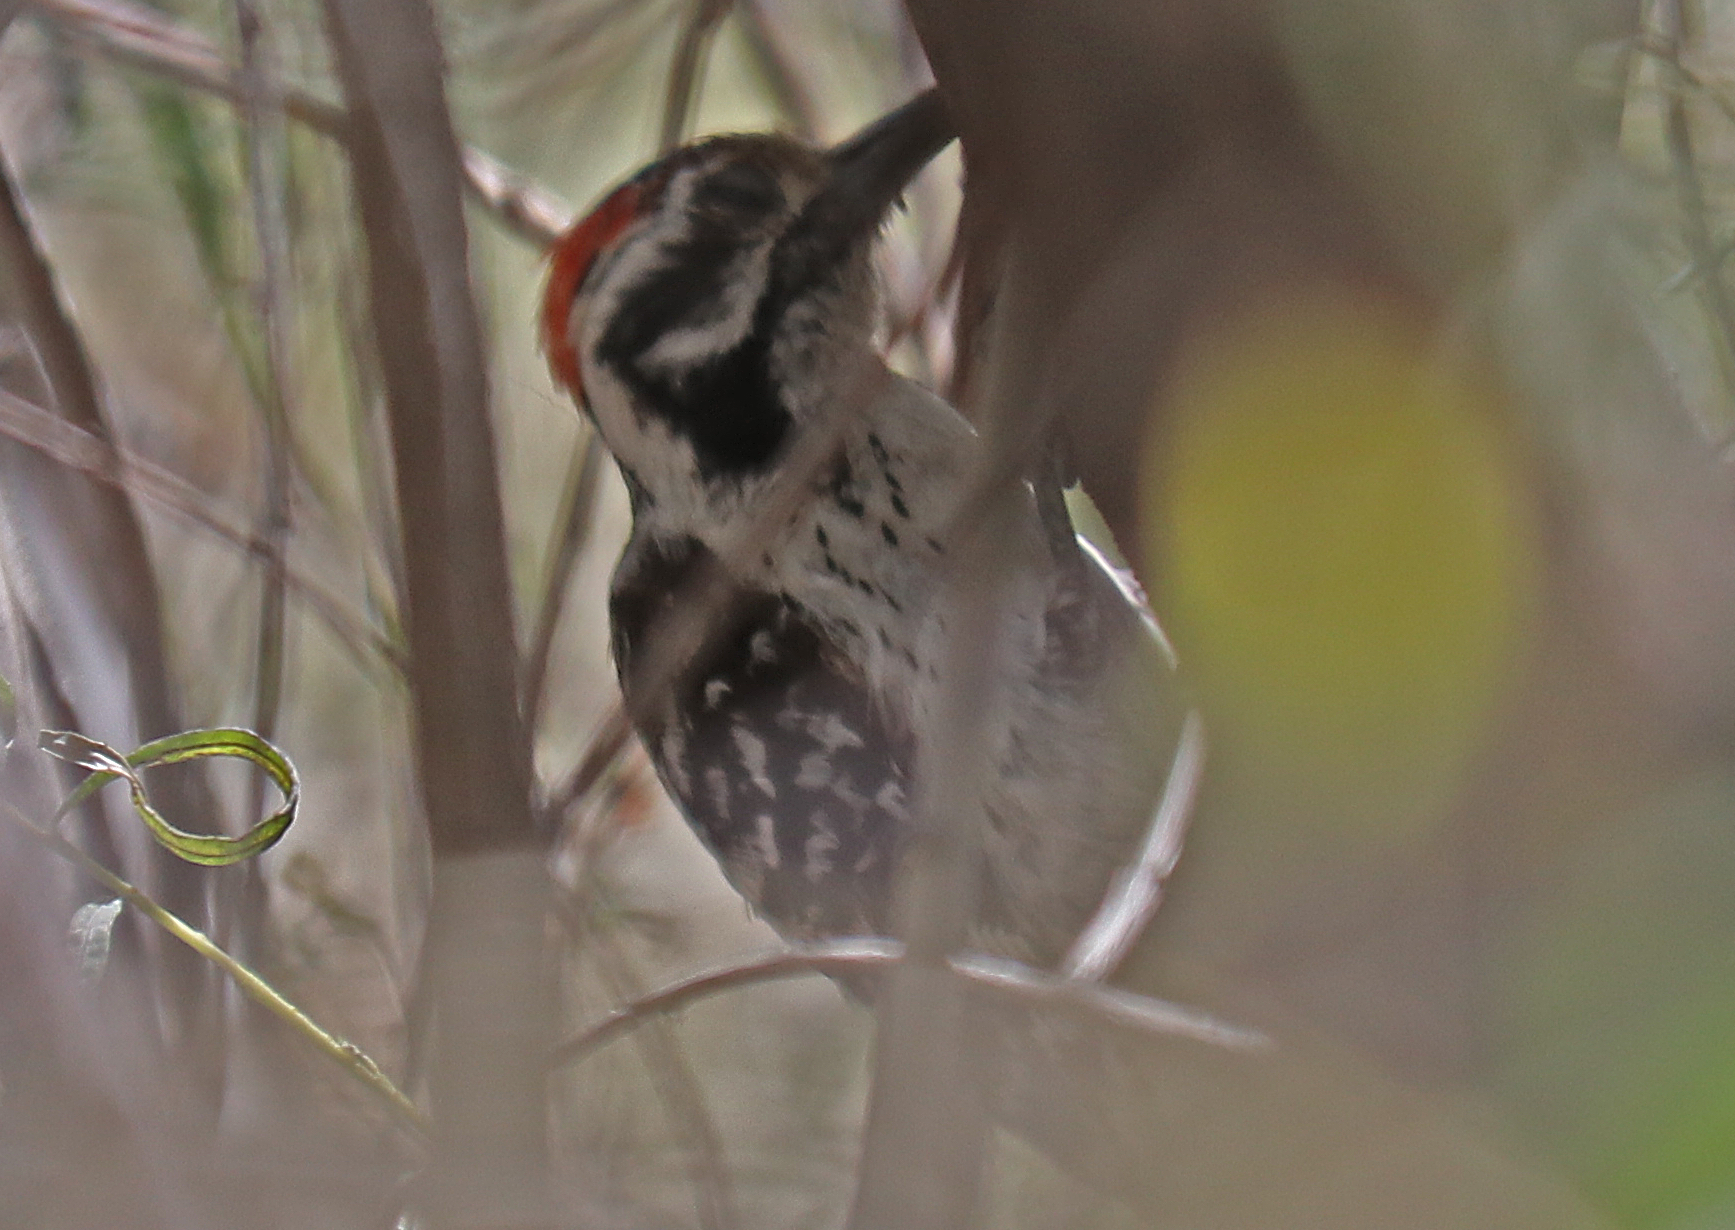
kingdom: Animalia
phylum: Chordata
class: Aves
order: Piciformes
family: Picidae
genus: Dryobates
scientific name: Dryobates scalaris
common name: Ladder-backed woodpecker
